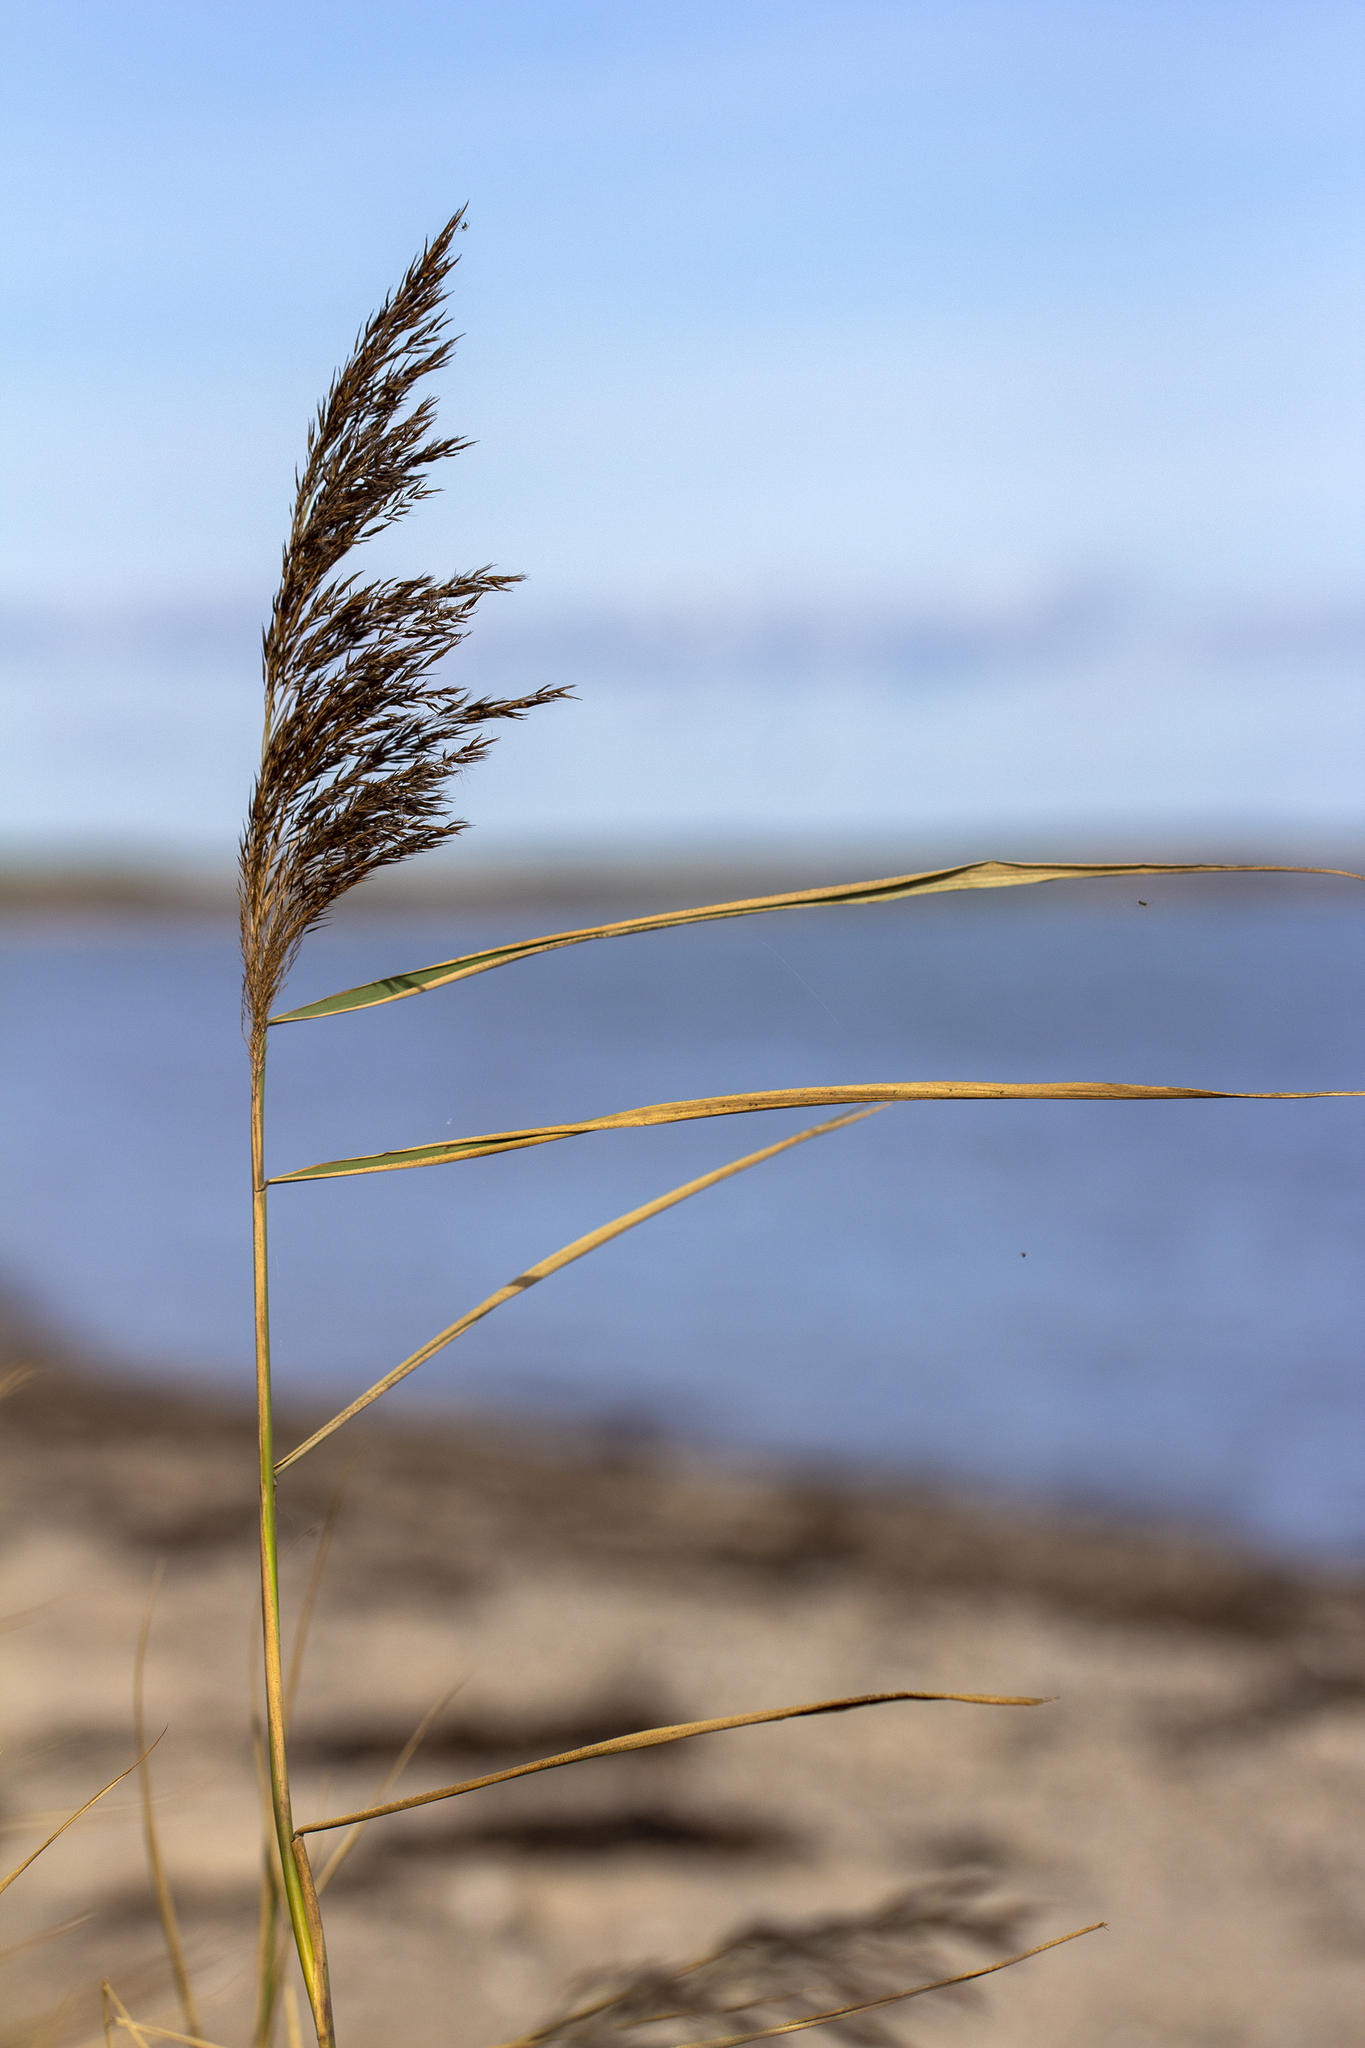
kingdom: Plantae
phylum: Tracheophyta
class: Liliopsida
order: Poales
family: Poaceae
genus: Phragmites
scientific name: Phragmites australis
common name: Common reed
